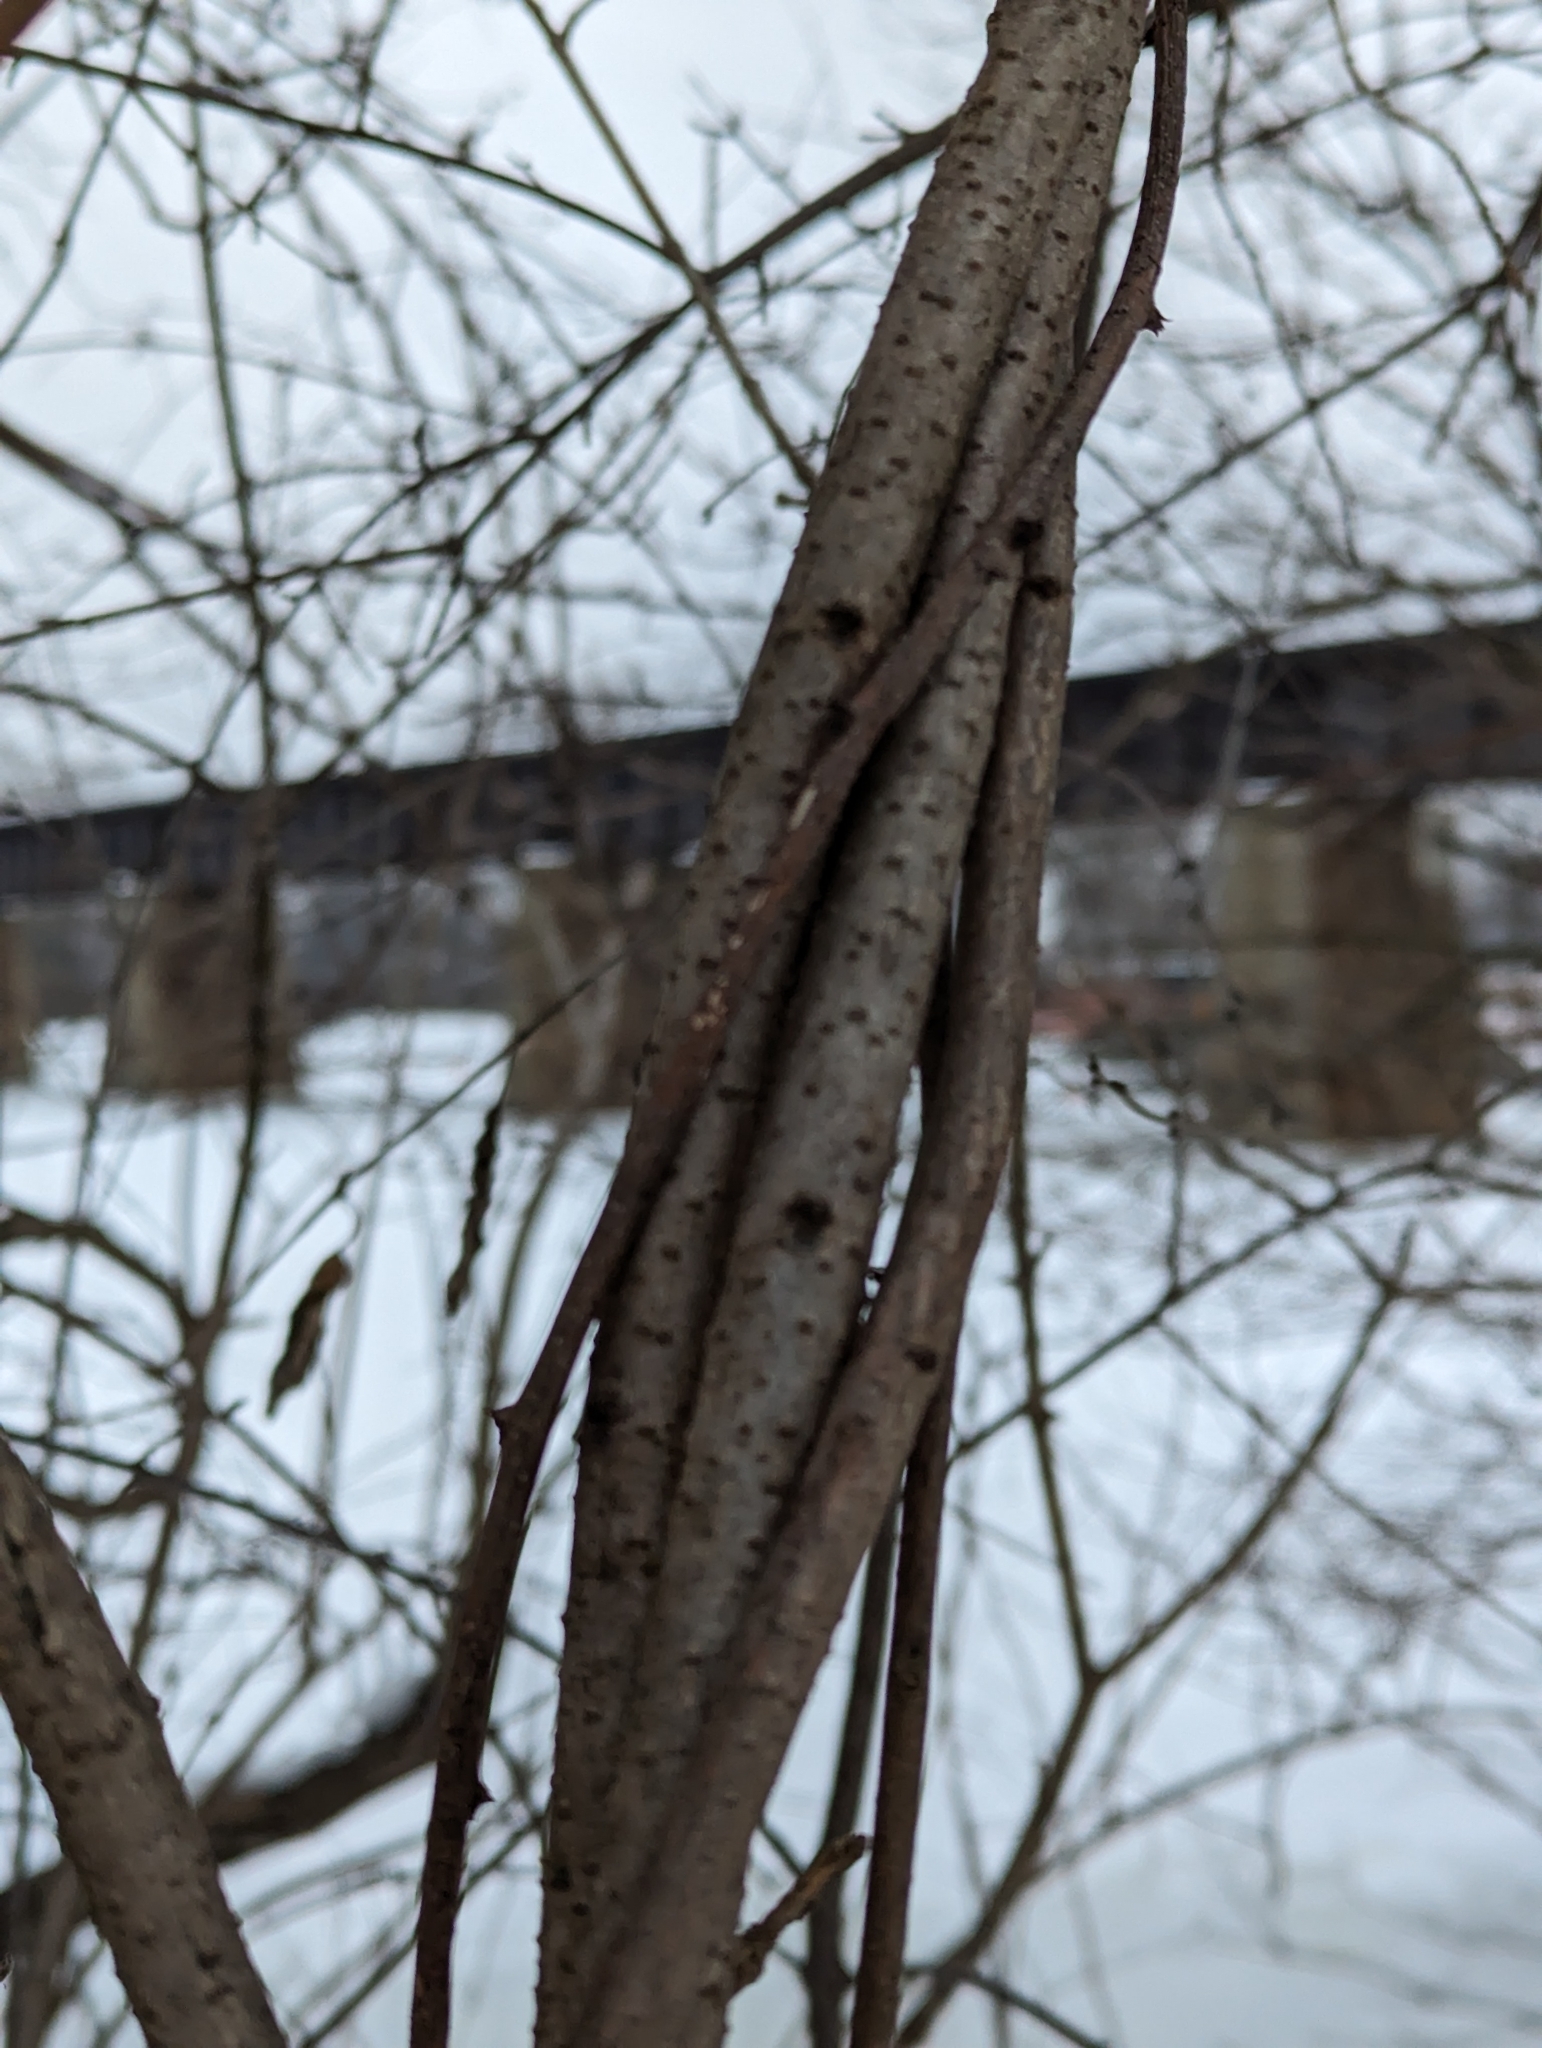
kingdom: Plantae
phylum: Tracheophyta
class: Magnoliopsida
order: Celastrales
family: Celastraceae
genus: Celastrus
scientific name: Celastrus orbiculatus
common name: Oriental bittersweet
